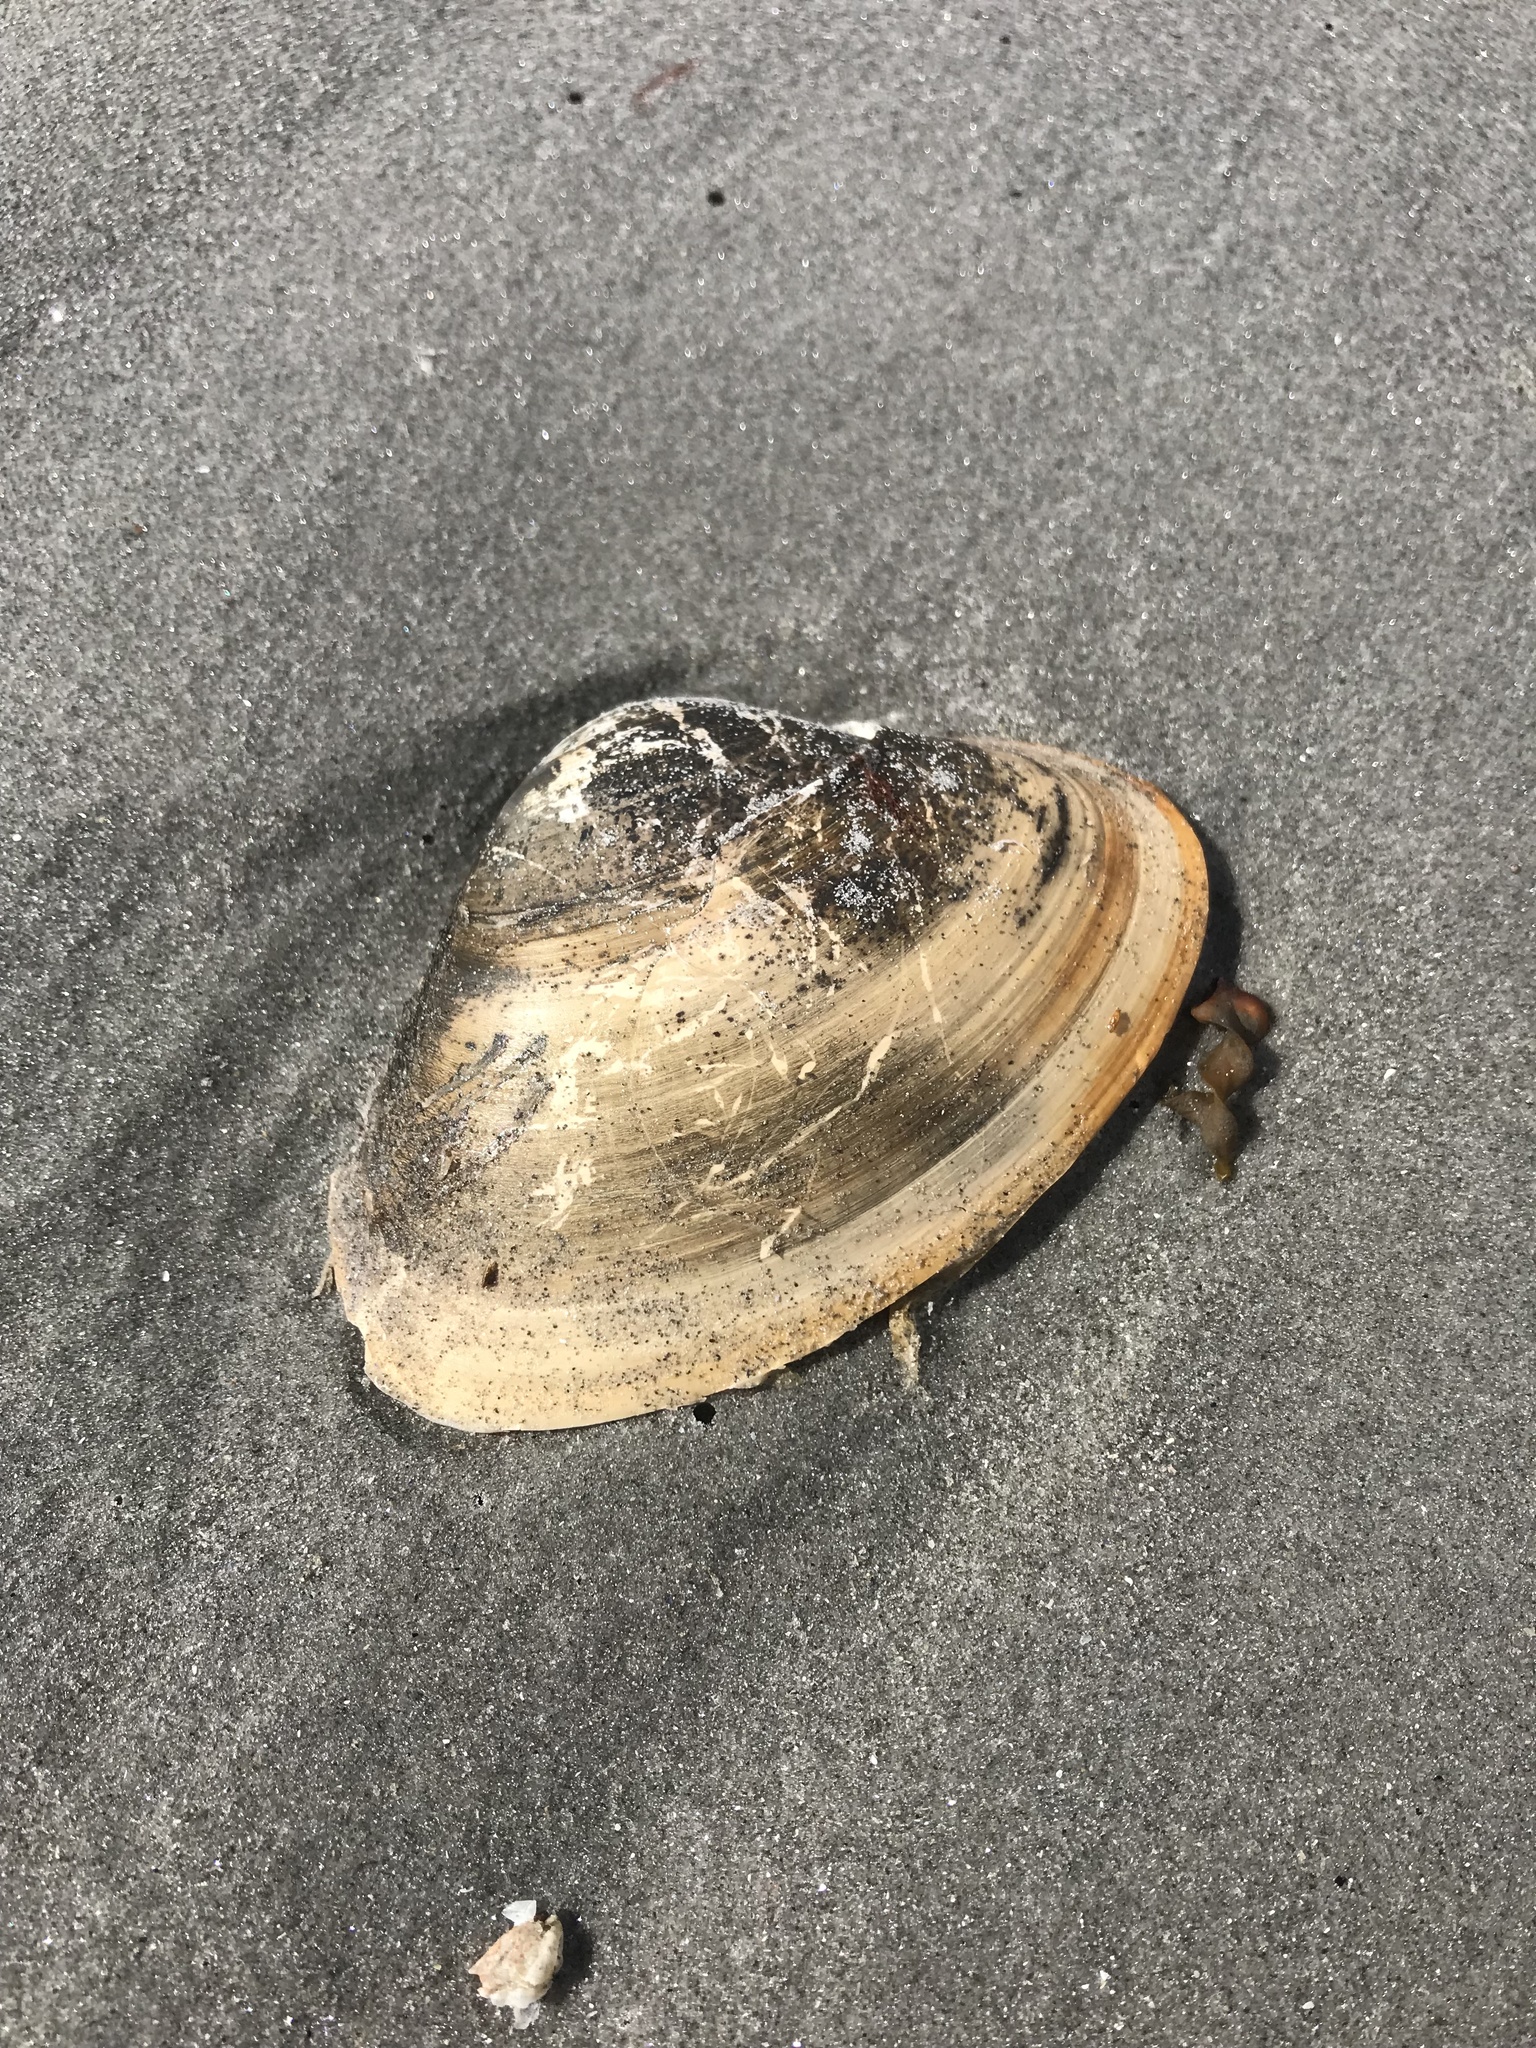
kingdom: Animalia
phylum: Mollusca
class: Bivalvia
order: Venerida
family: Mactridae
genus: Spisula
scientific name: Spisula solidissima
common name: Atlantic surf clam
